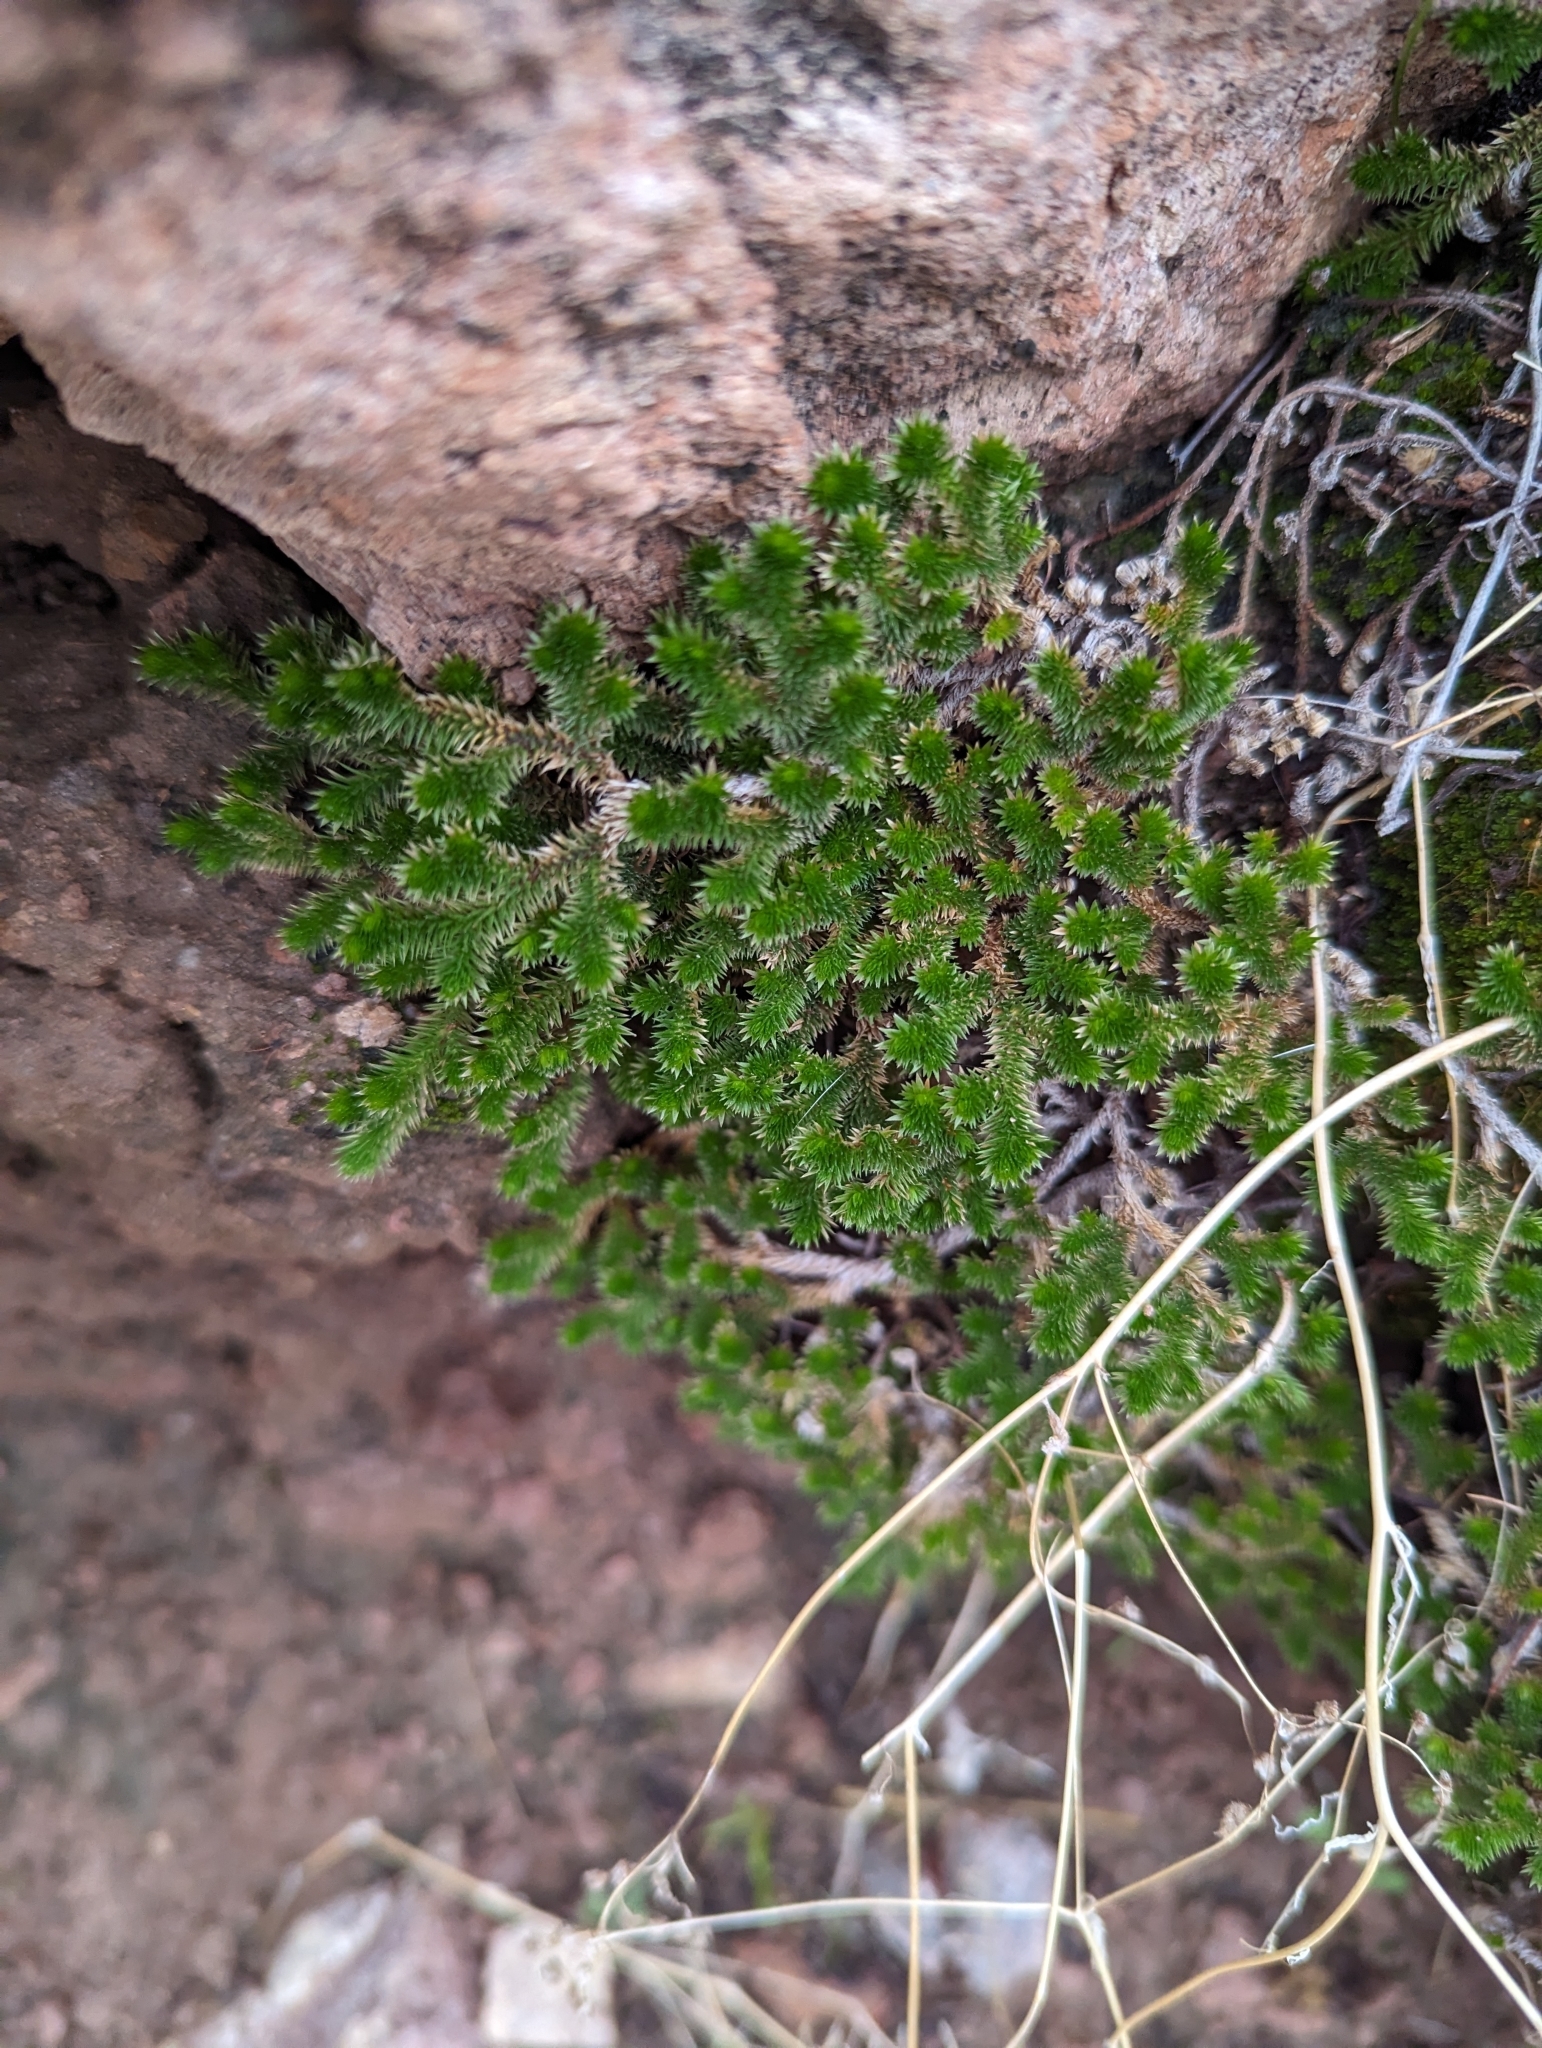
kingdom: Plantae
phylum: Tracheophyta
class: Lycopodiopsida
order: Selaginellales
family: Selaginellaceae
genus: Selaginella
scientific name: Selaginella arizonica
